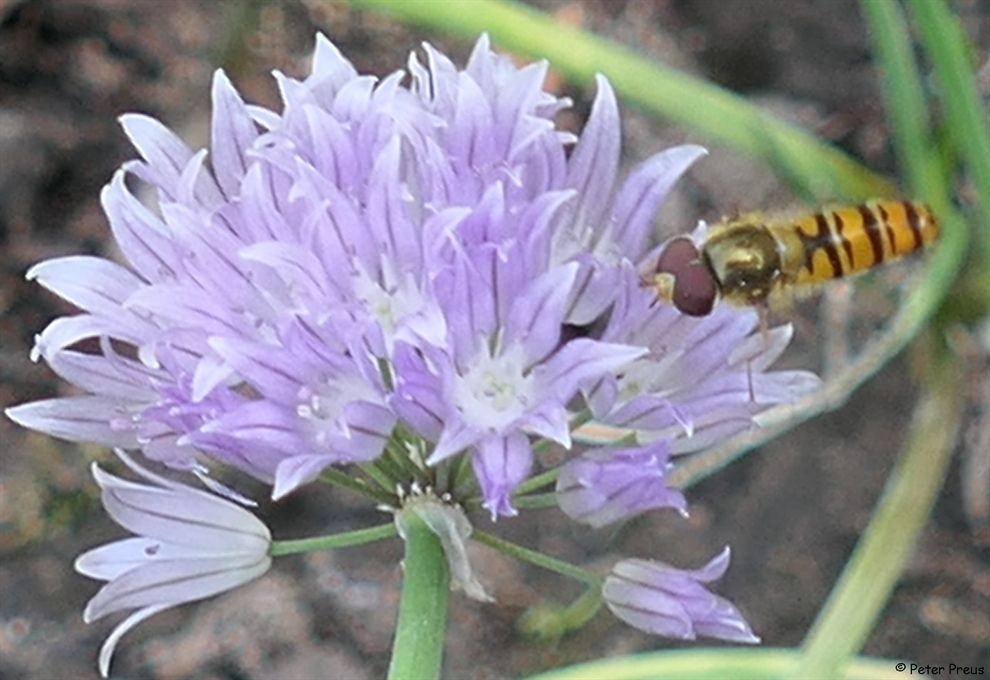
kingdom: Animalia
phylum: Arthropoda
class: Insecta
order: Diptera
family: Syrphidae
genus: Episyrphus
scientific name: Episyrphus balteatus
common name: Marmalade hoverfly
